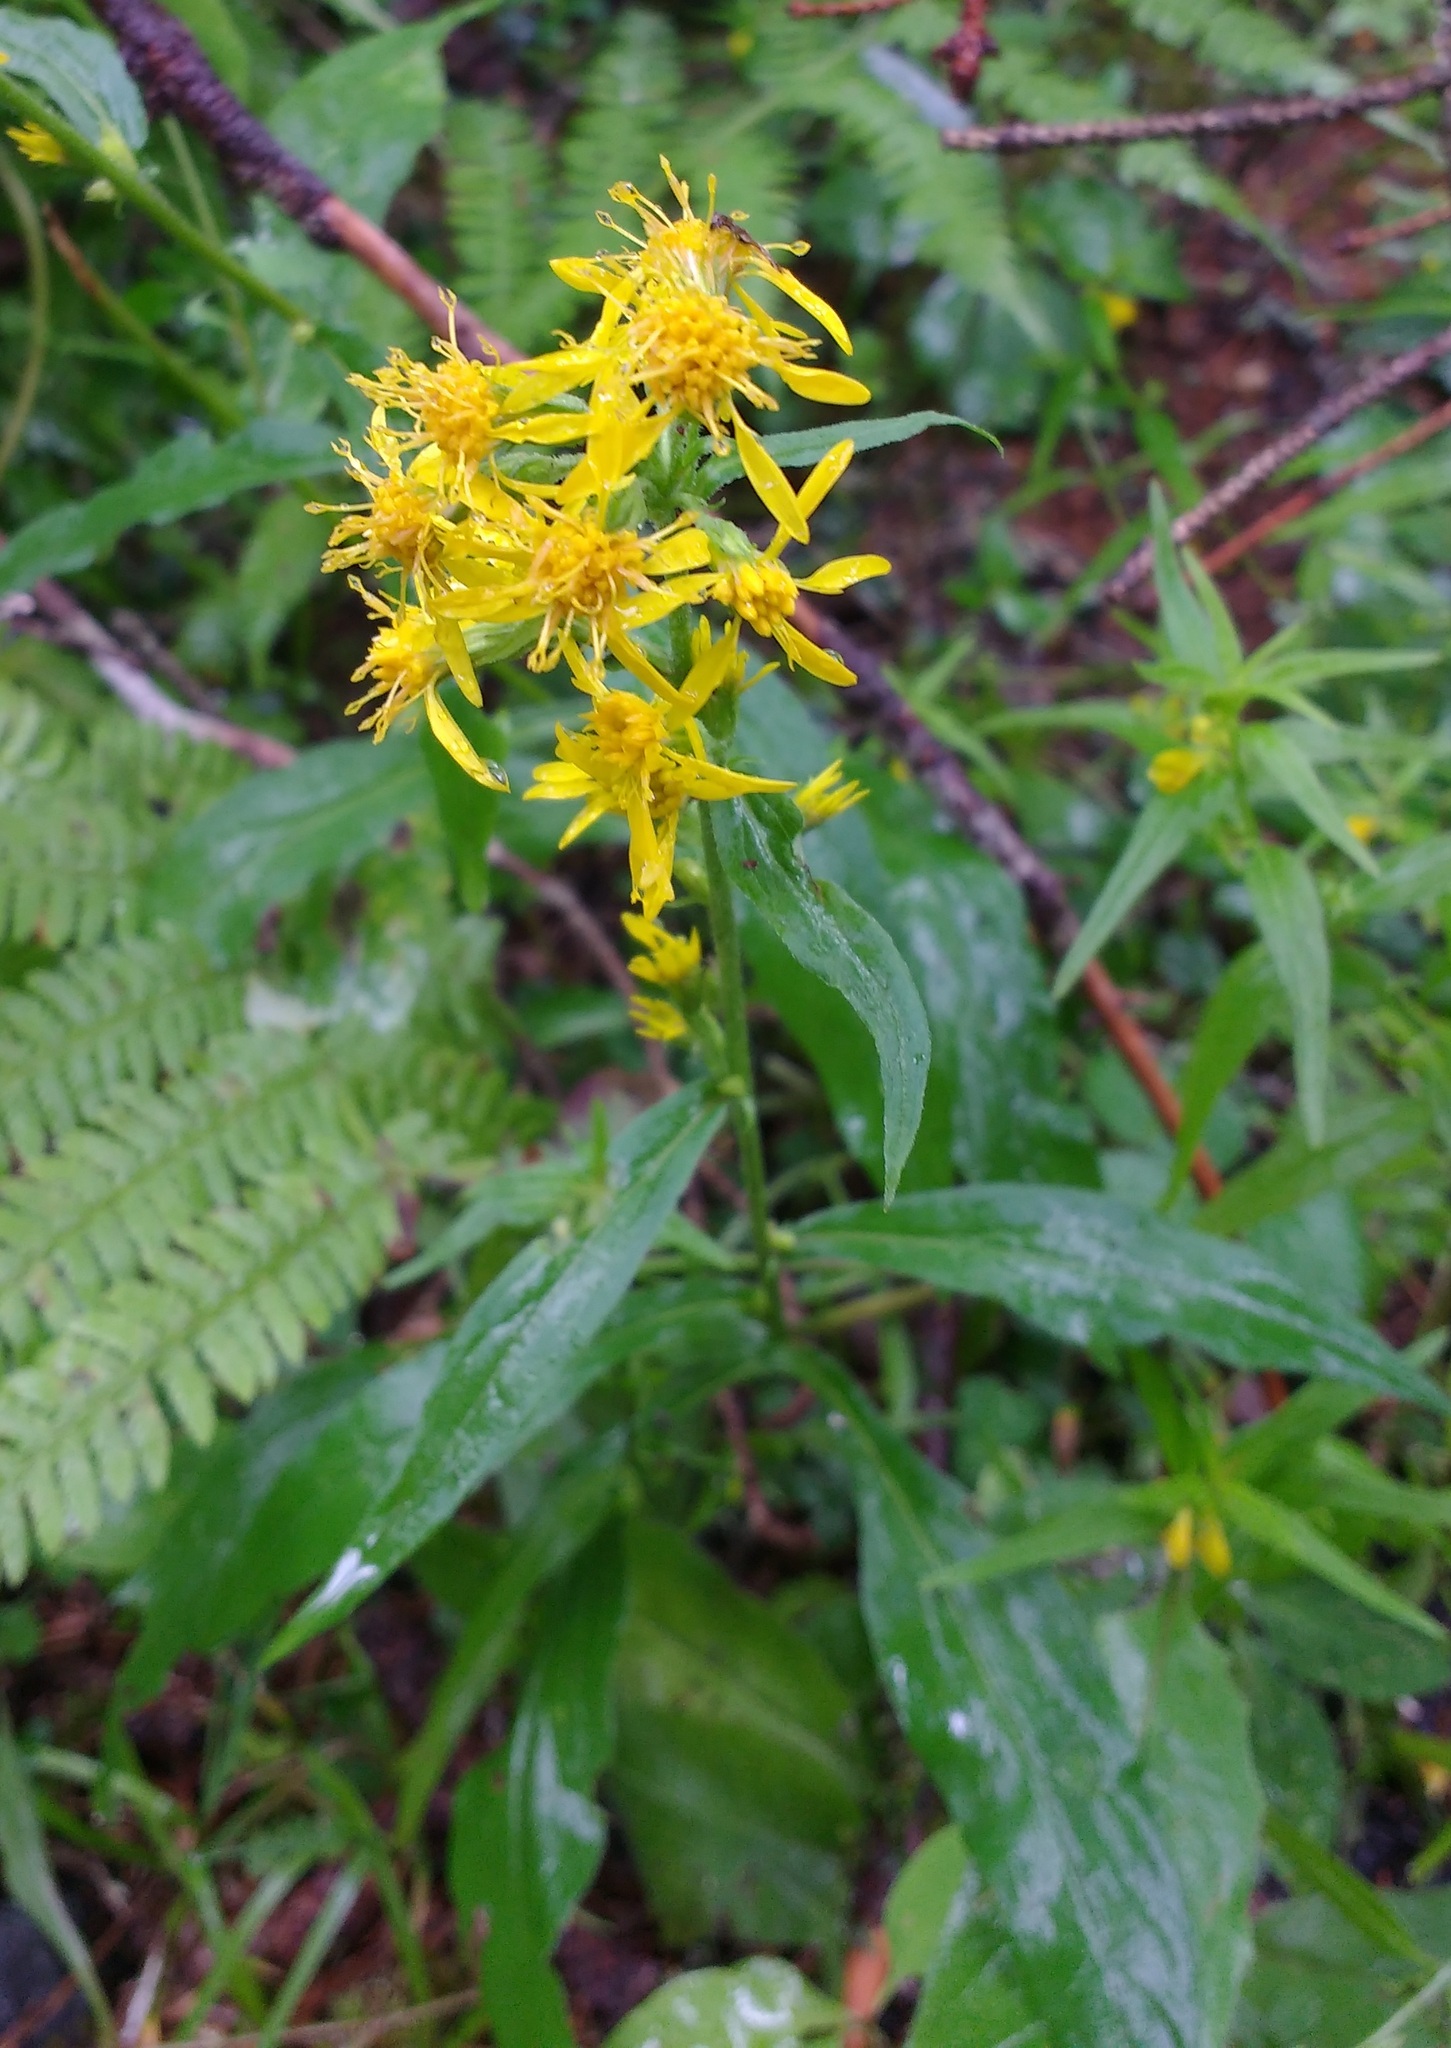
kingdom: Plantae
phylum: Tracheophyta
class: Magnoliopsida
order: Asterales
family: Asteraceae
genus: Solidago
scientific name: Solidago virgaurea
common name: Goldenrod
